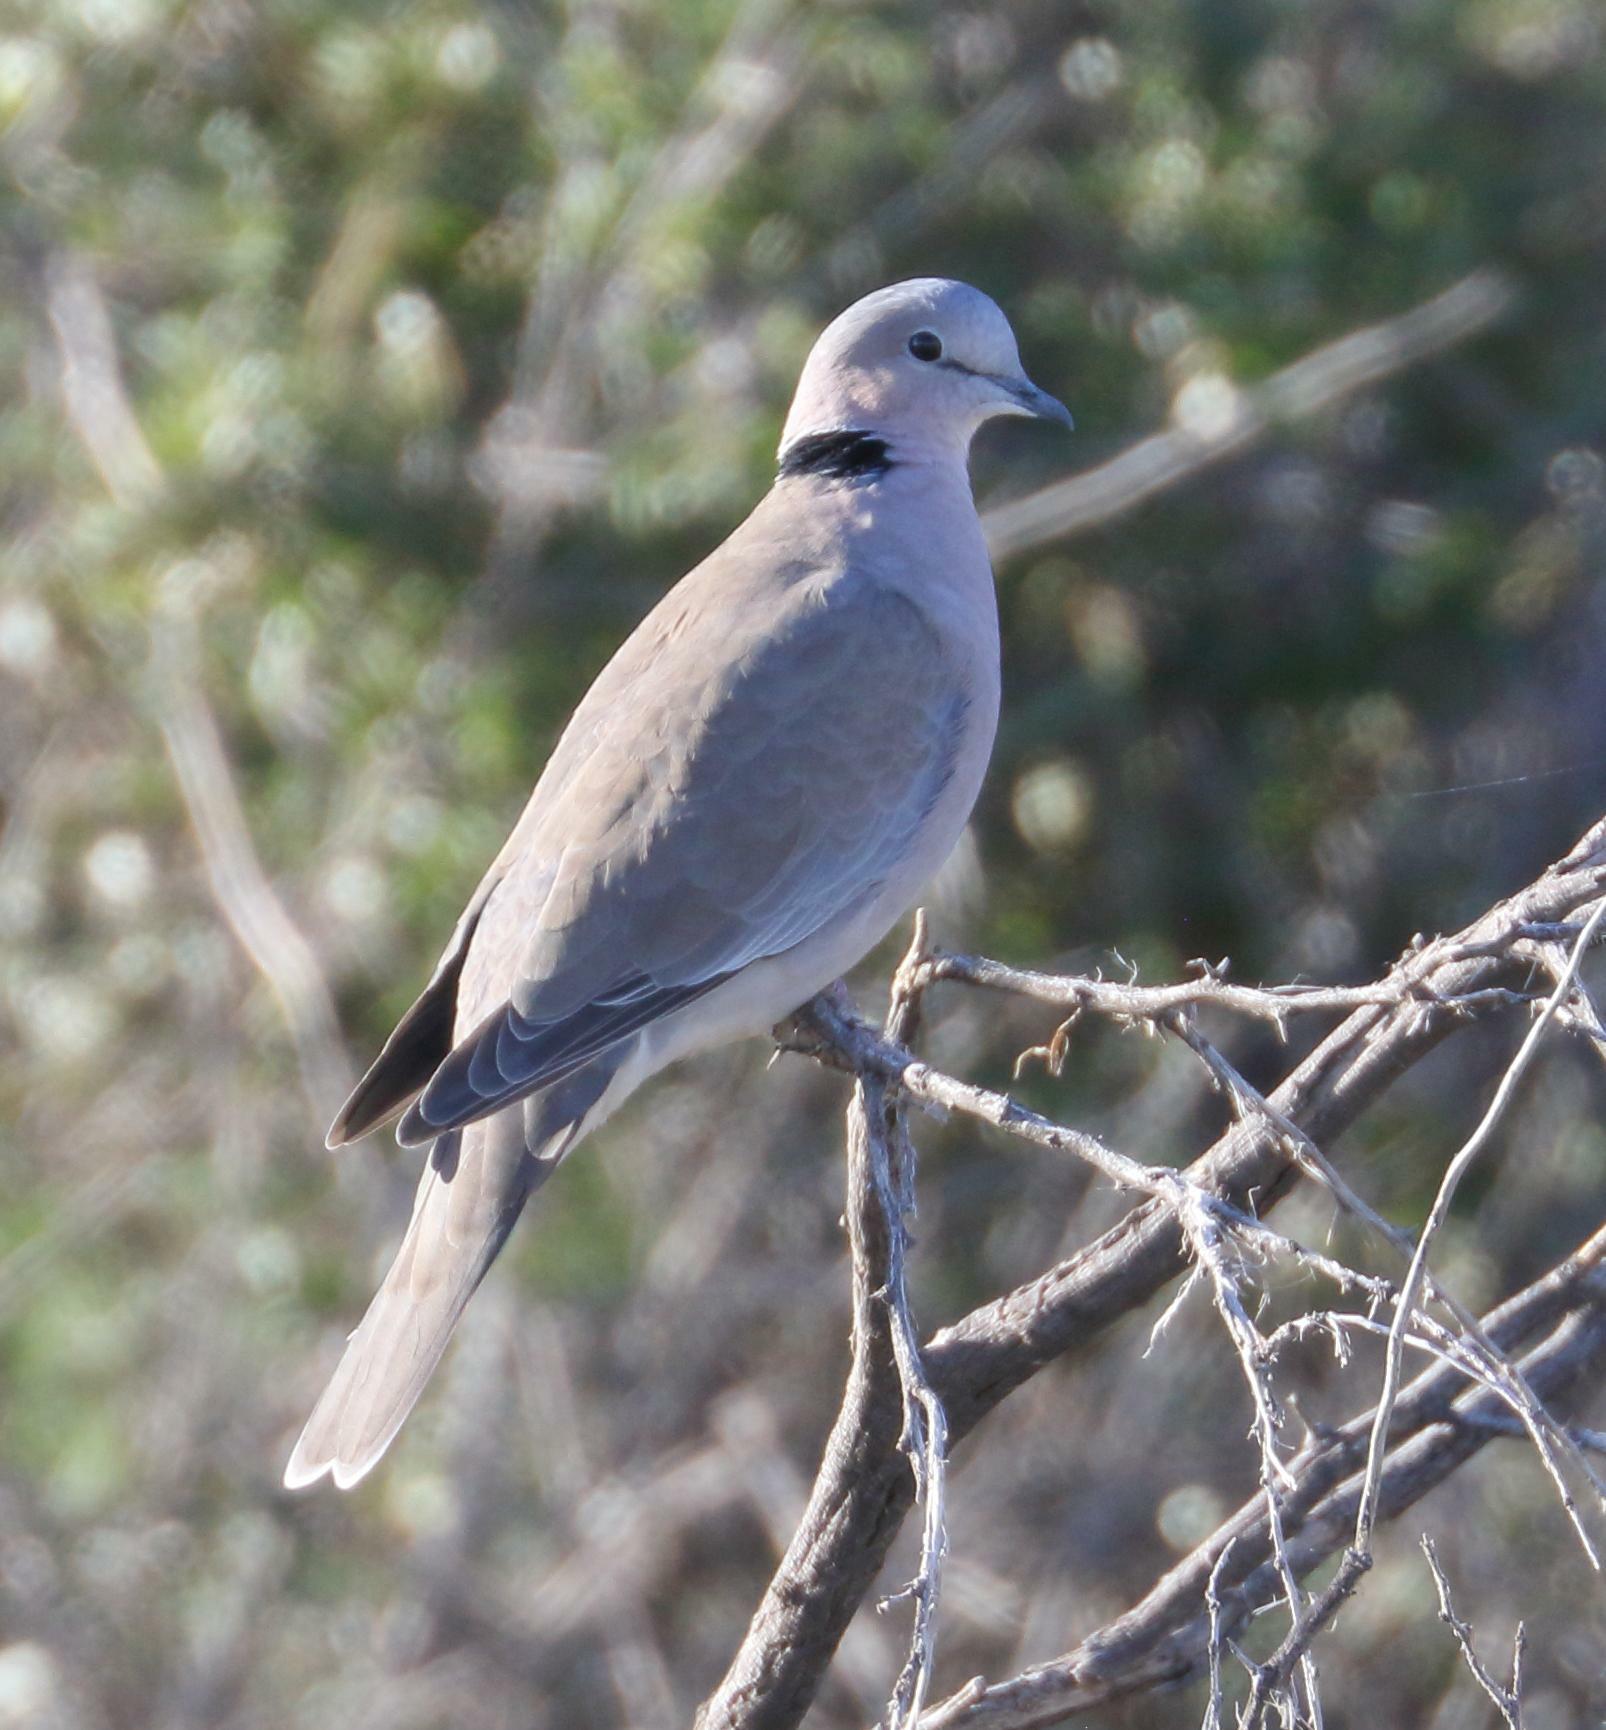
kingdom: Animalia
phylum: Chordata
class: Aves
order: Columbiformes
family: Columbidae
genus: Streptopelia
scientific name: Streptopelia capicola
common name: Ring-necked dove
